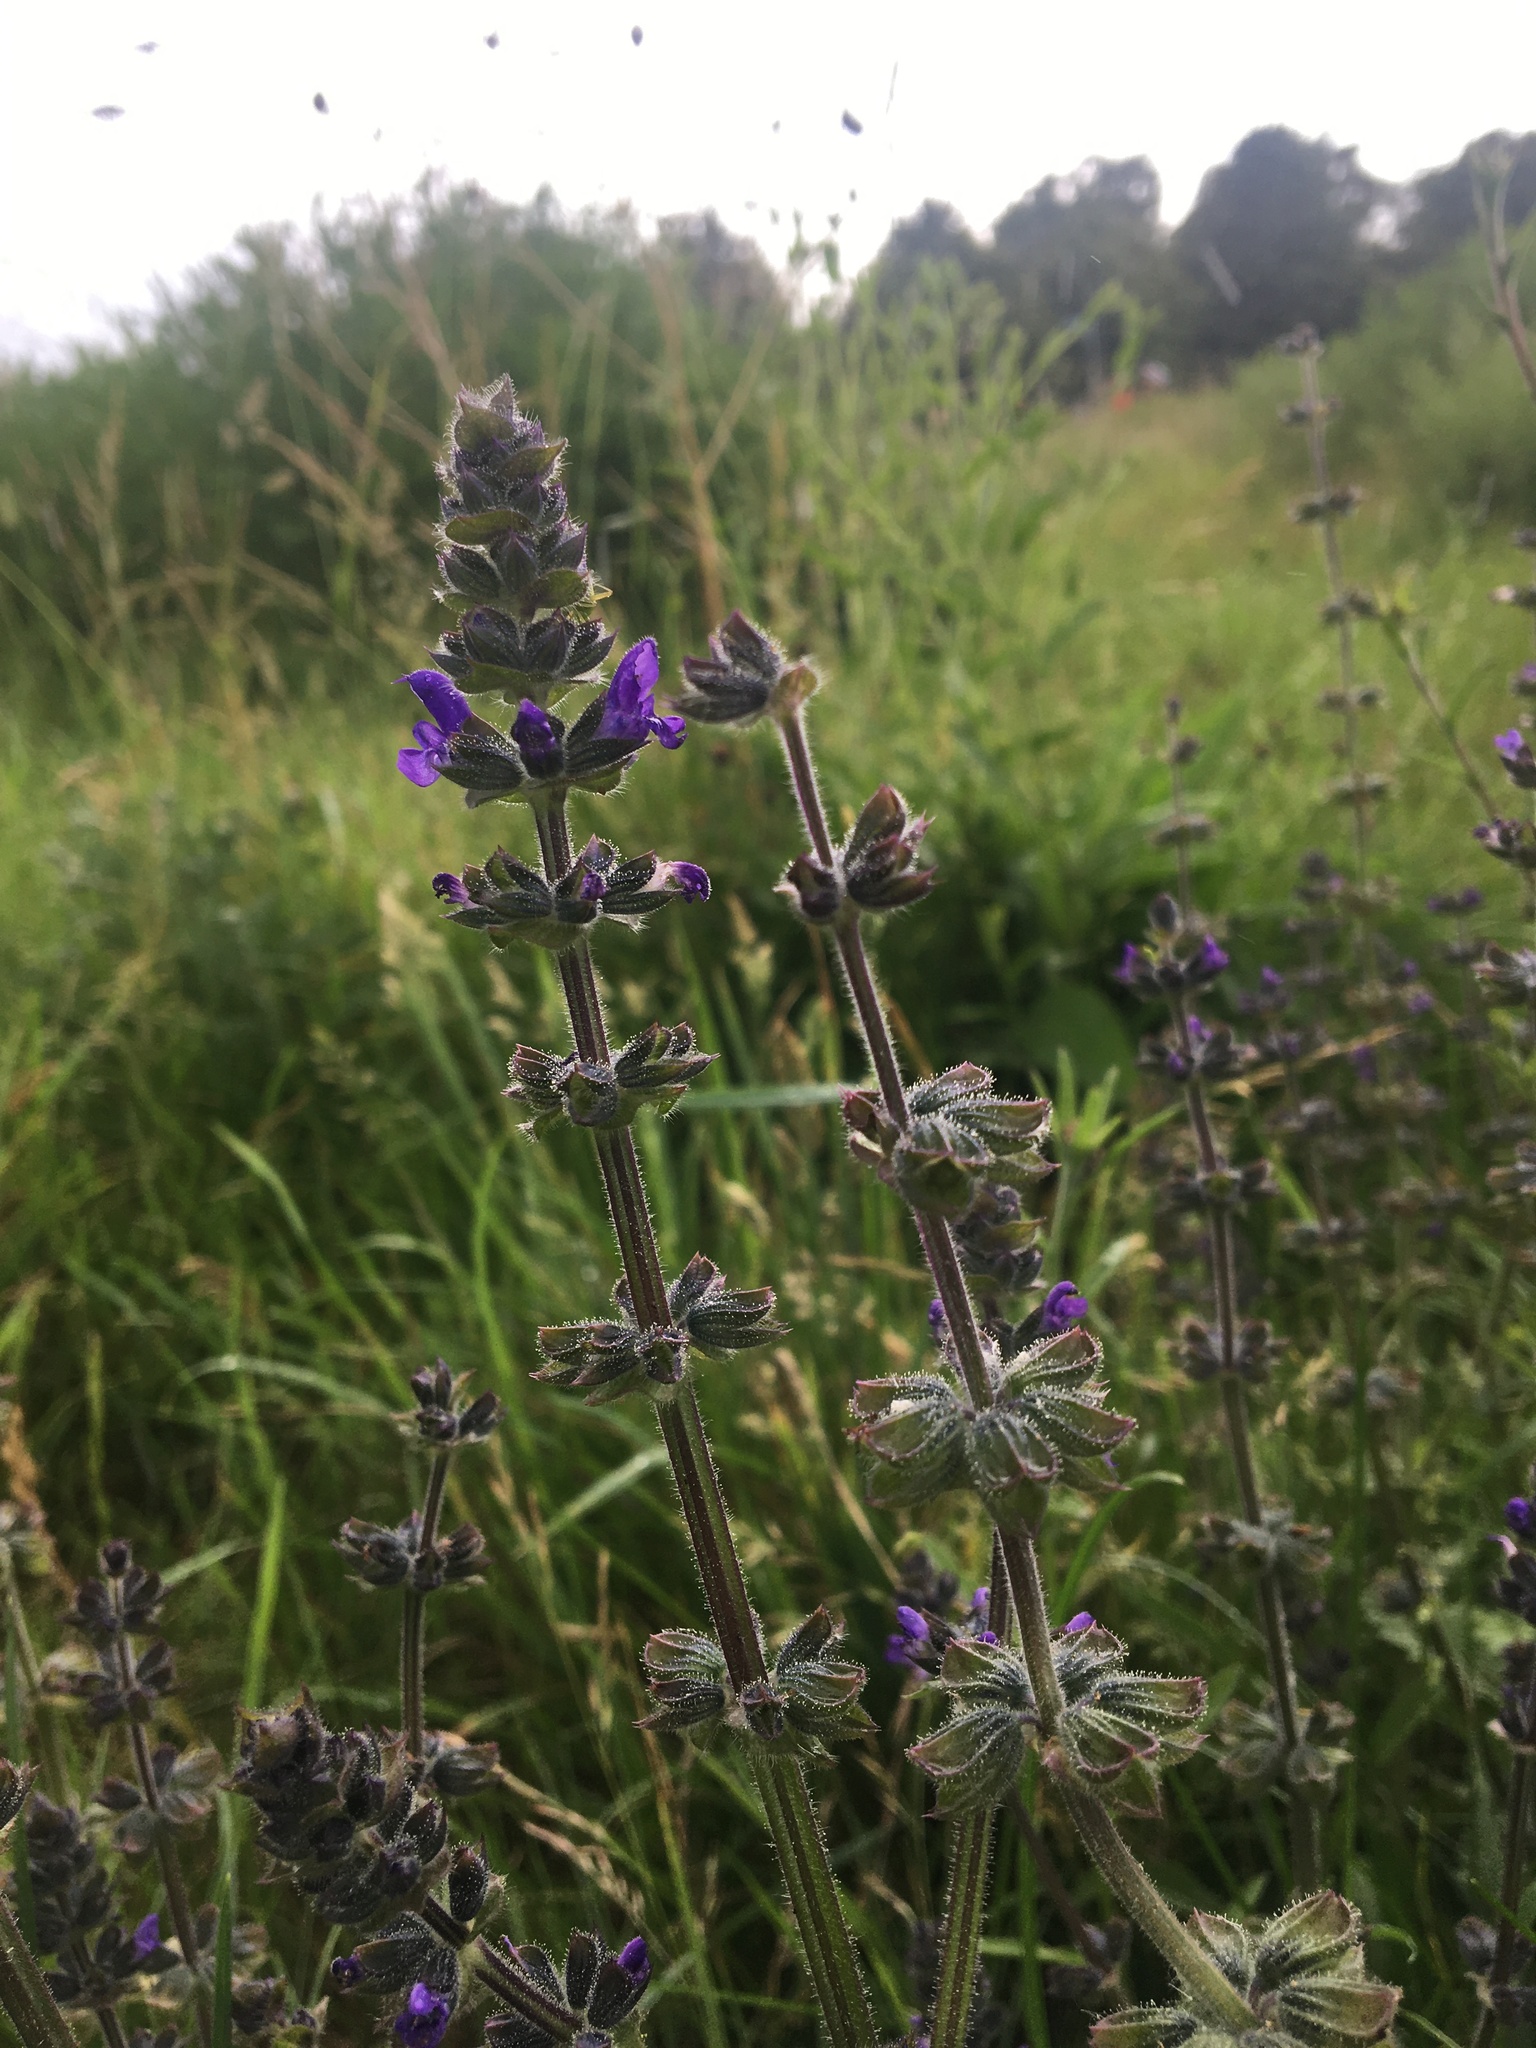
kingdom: Plantae
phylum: Tracheophyta
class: Magnoliopsida
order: Lamiales
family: Lamiaceae
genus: Salvia
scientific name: Salvia verbenaca
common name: Wild clary
